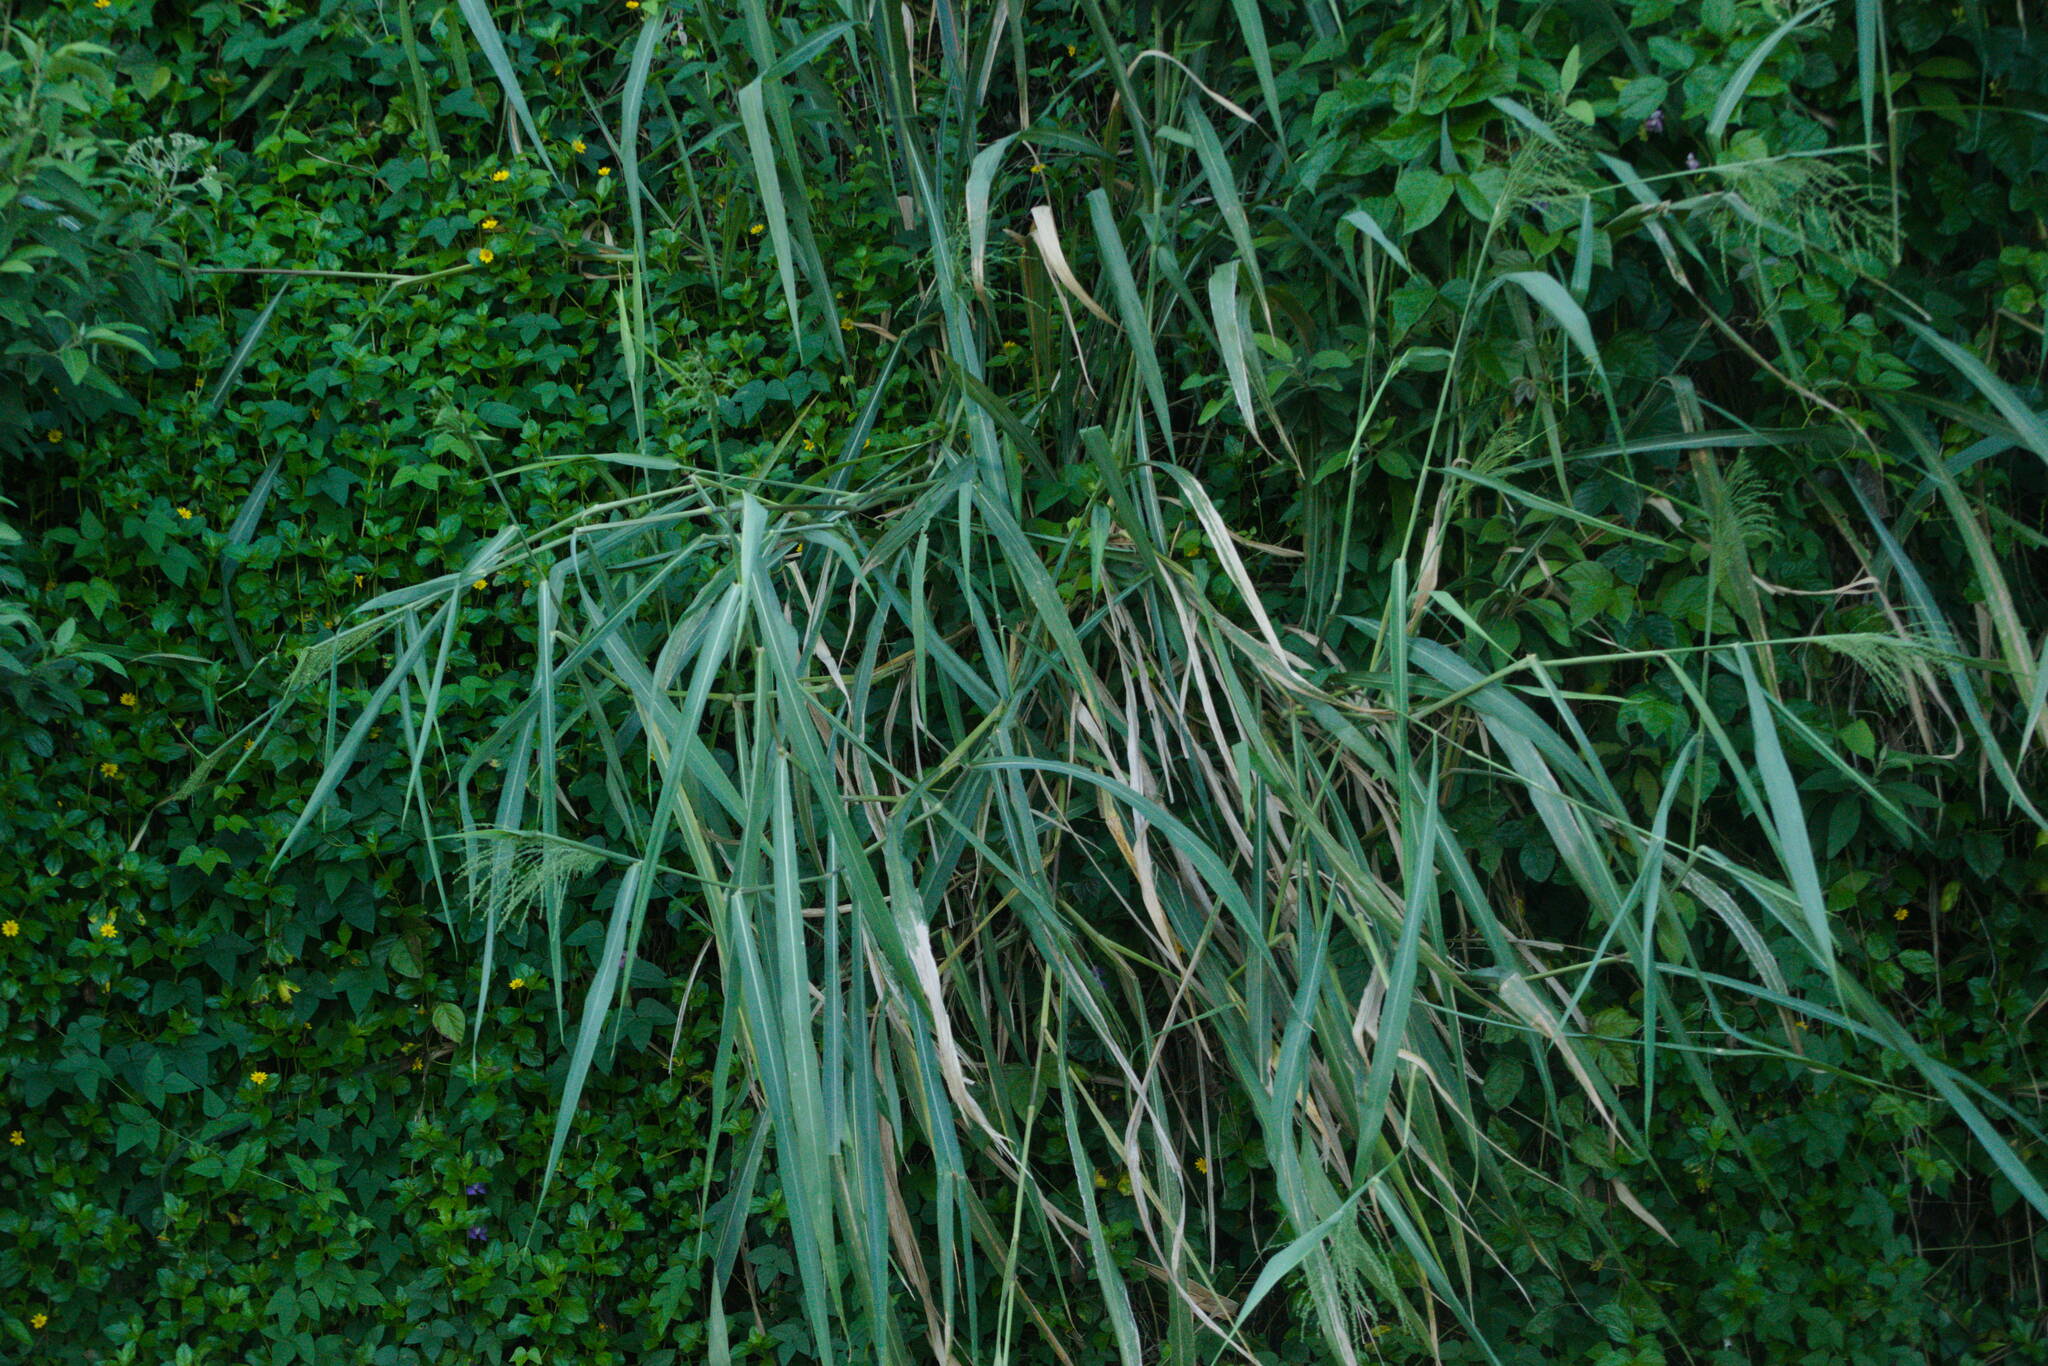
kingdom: Plantae
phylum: Tracheophyta
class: Liliopsida
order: Poales
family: Poaceae
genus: Megathyrsus
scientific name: Megathyrsus maximus
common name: Guineagrass
